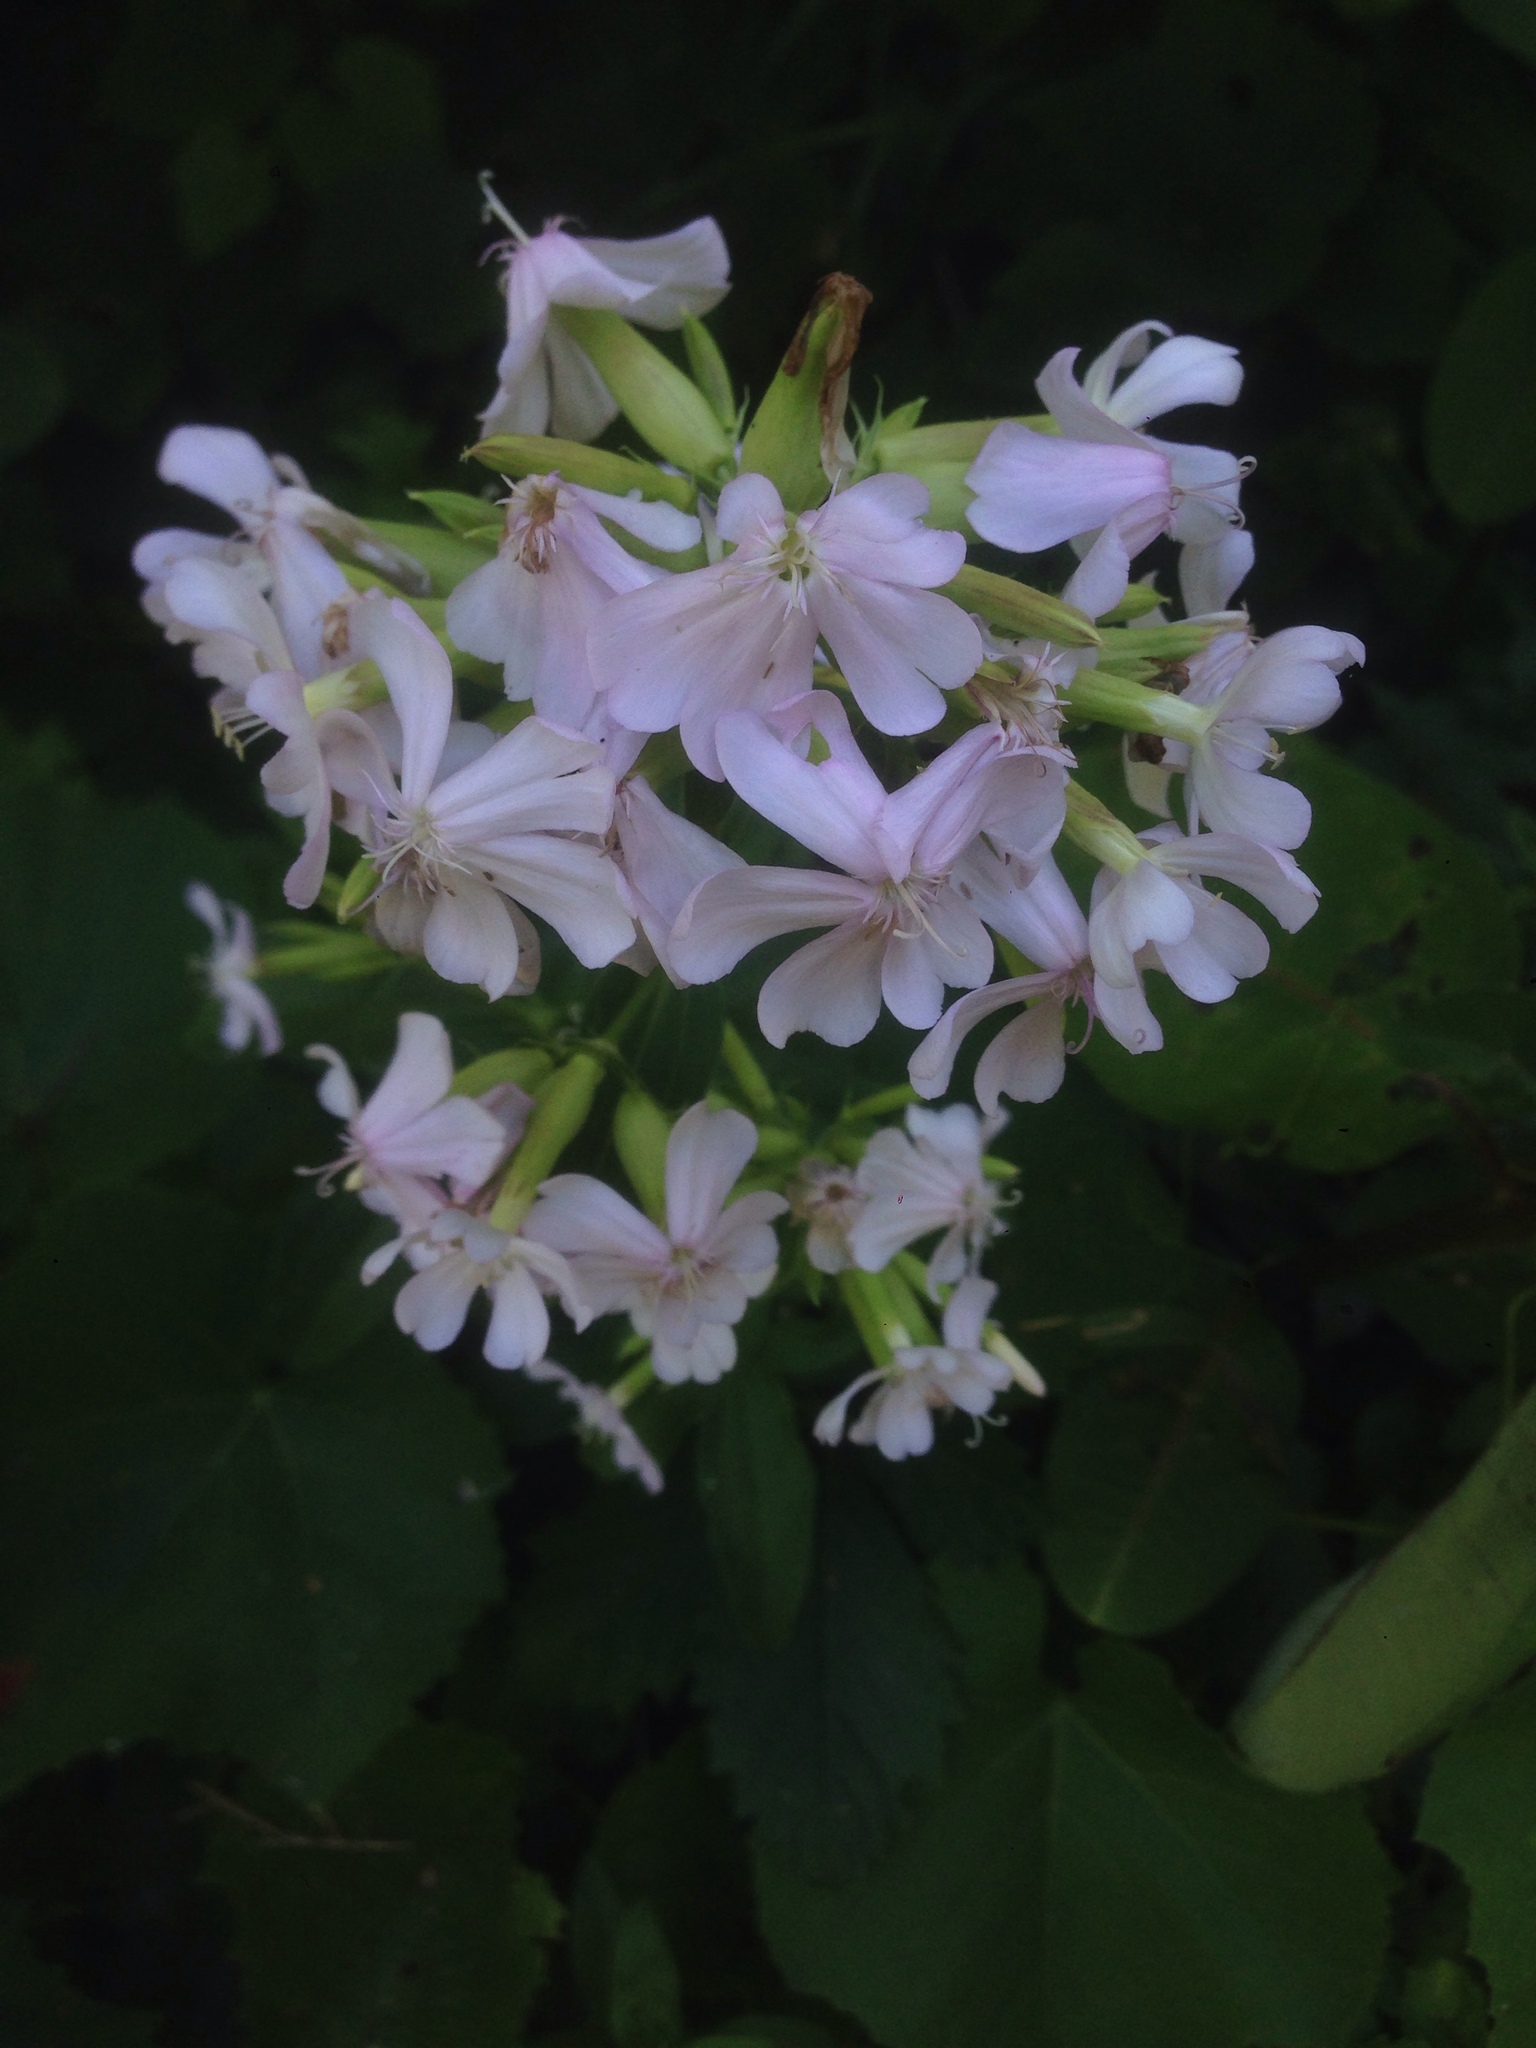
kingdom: Plantae
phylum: Tracheophyta
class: Magnoliopsida
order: Caryophyllales
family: Caryophyllaceae
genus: Saponaria
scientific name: Saponaria officinalis
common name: Soapwort
